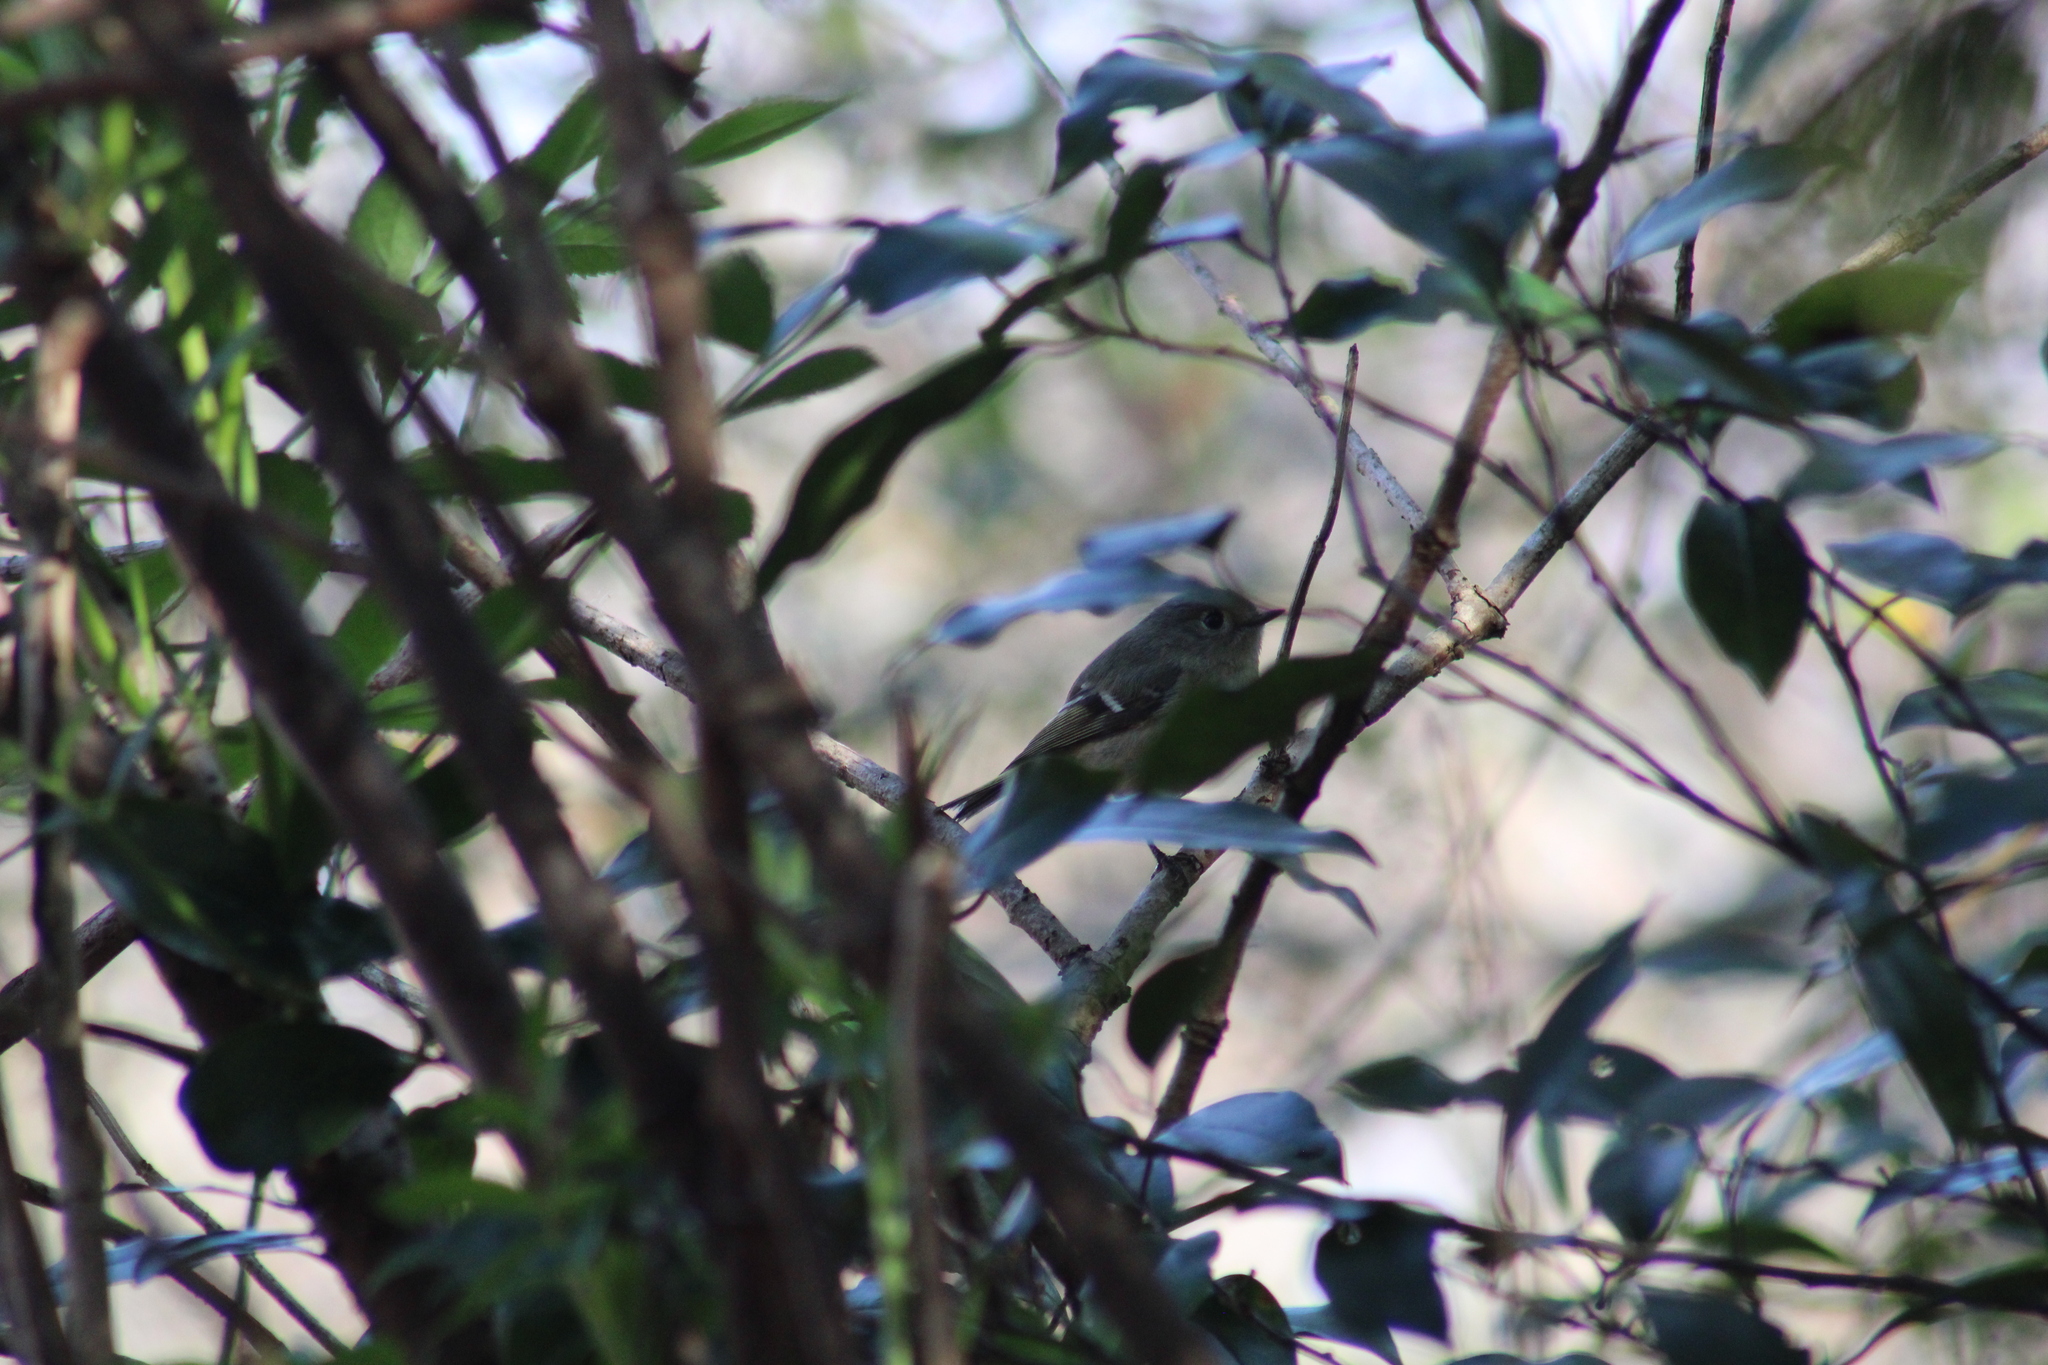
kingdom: Animalia
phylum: Chordata
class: Aves
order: Passeriformes
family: Regulidae
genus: Regulus
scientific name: Regulus calendula
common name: Ruby-crowned kinglet
